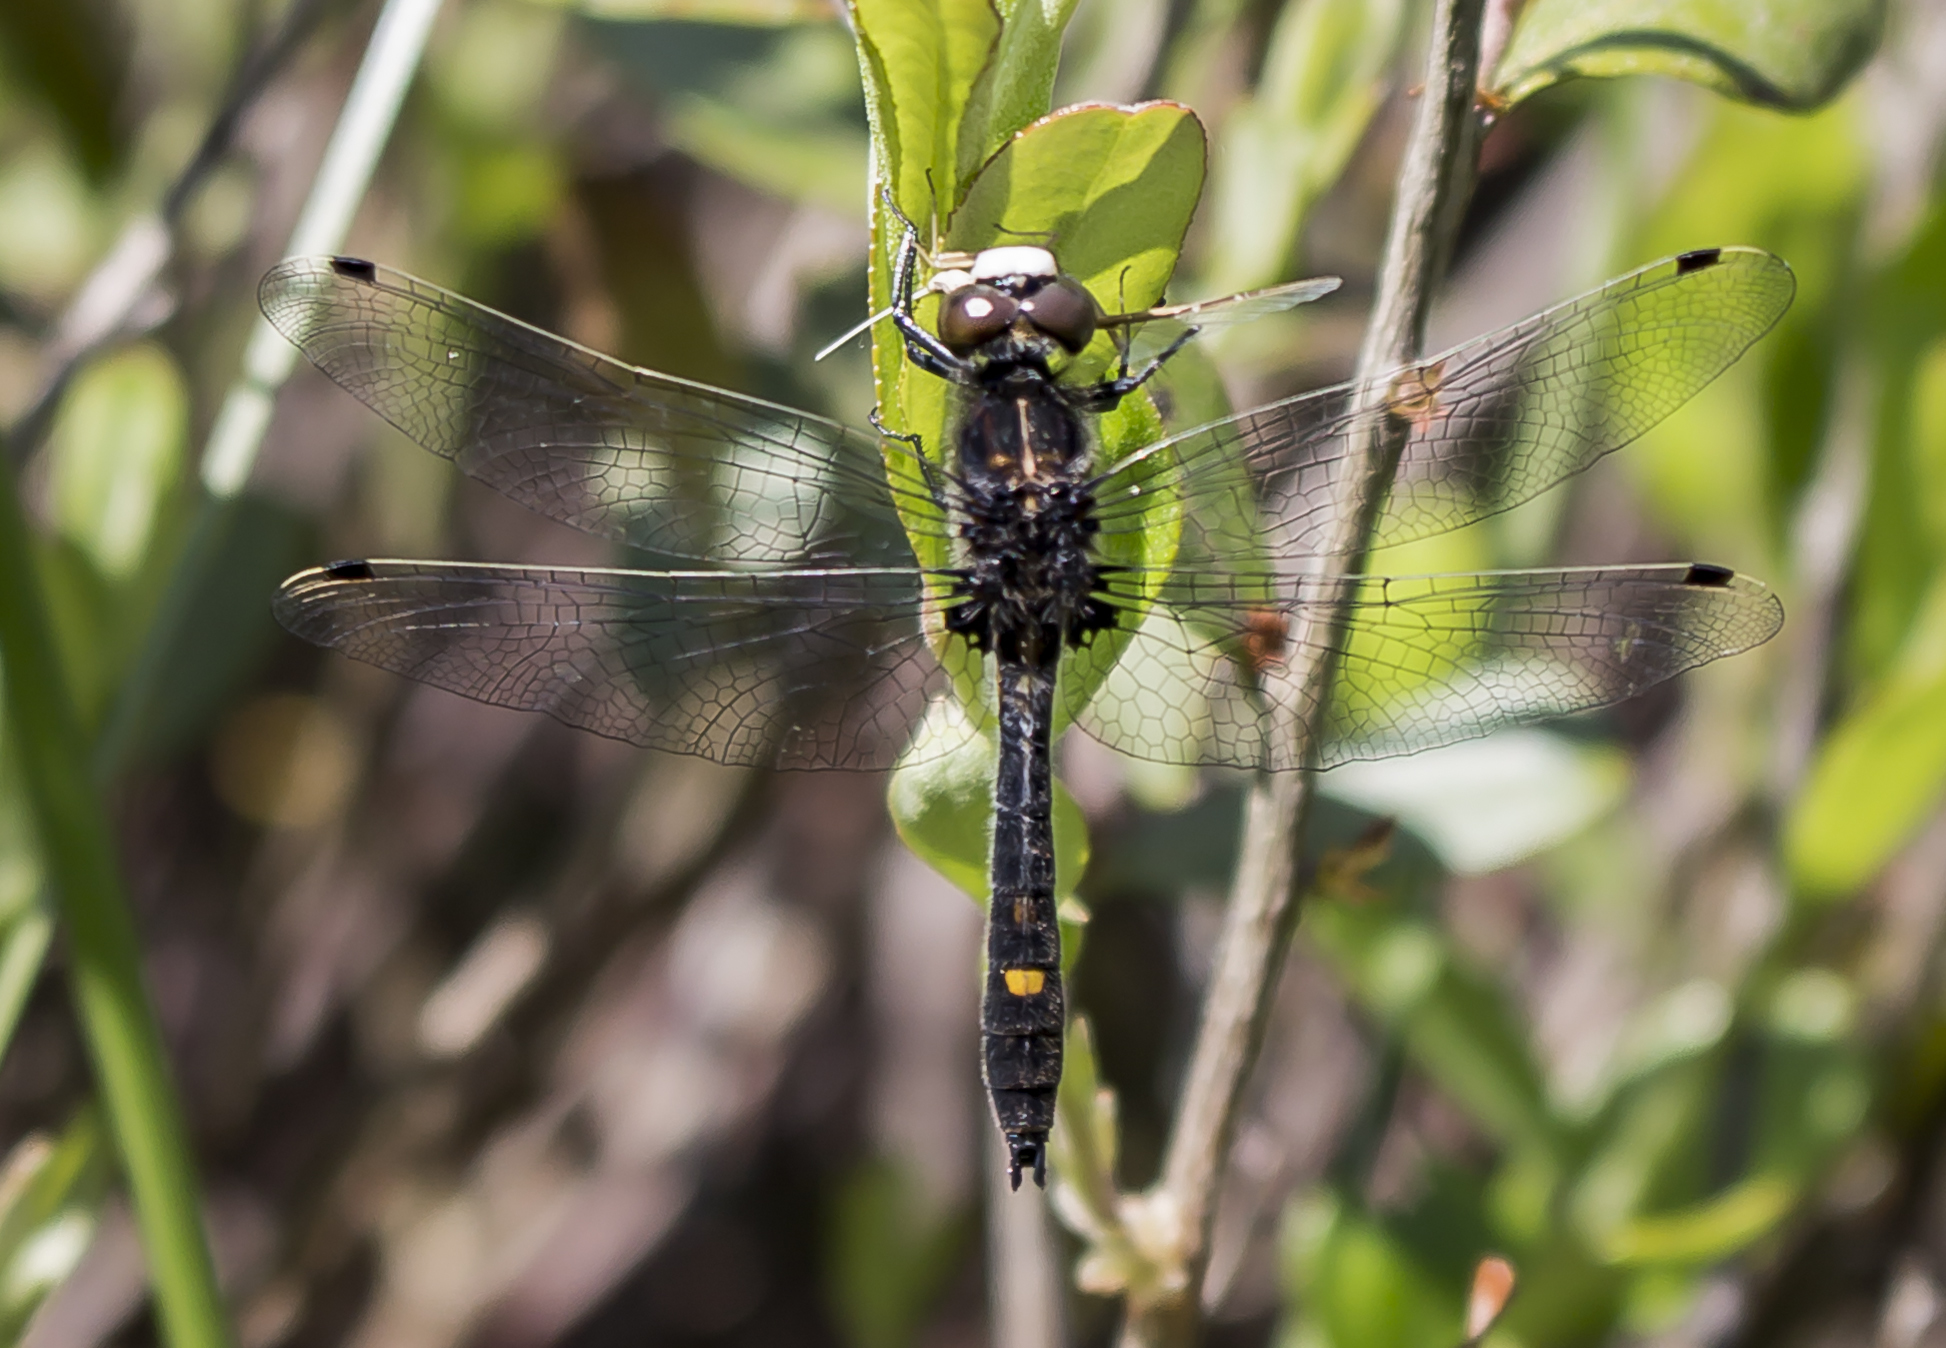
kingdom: Animalia
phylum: Arthropoda
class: Insecta
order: Odonata
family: Libellulidae
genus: Leucorrhinia
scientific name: Leucorrhinia intacta
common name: Dot-tailed whiteface
